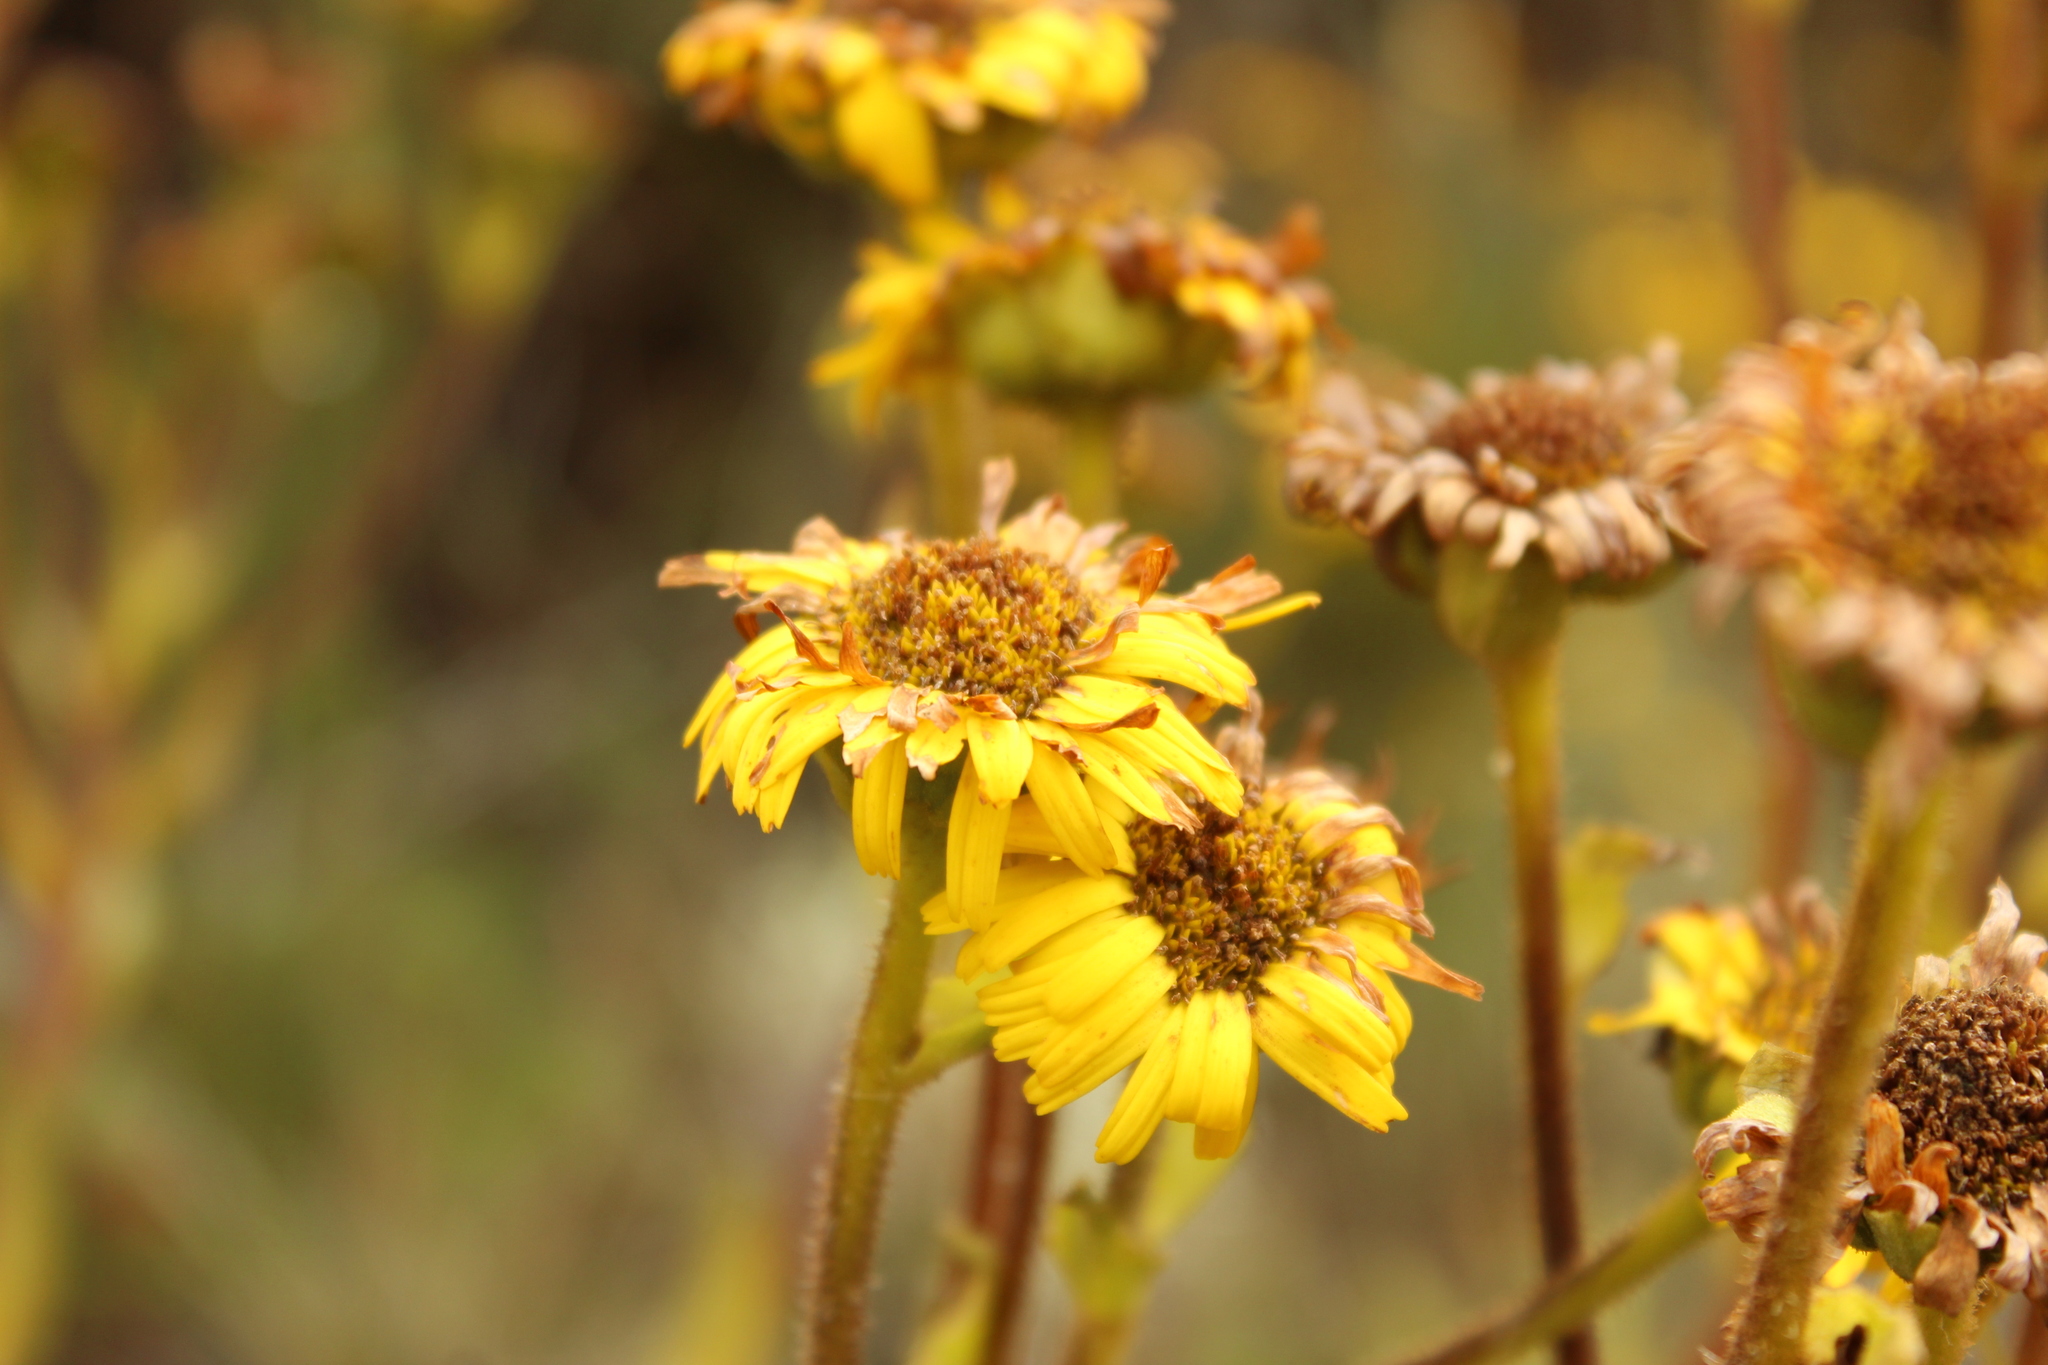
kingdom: Plantae
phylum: Tracheophyta
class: Magnoliopsida
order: Asterales
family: Asteraceae
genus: Espeletia
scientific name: Espeletia glandulosa
